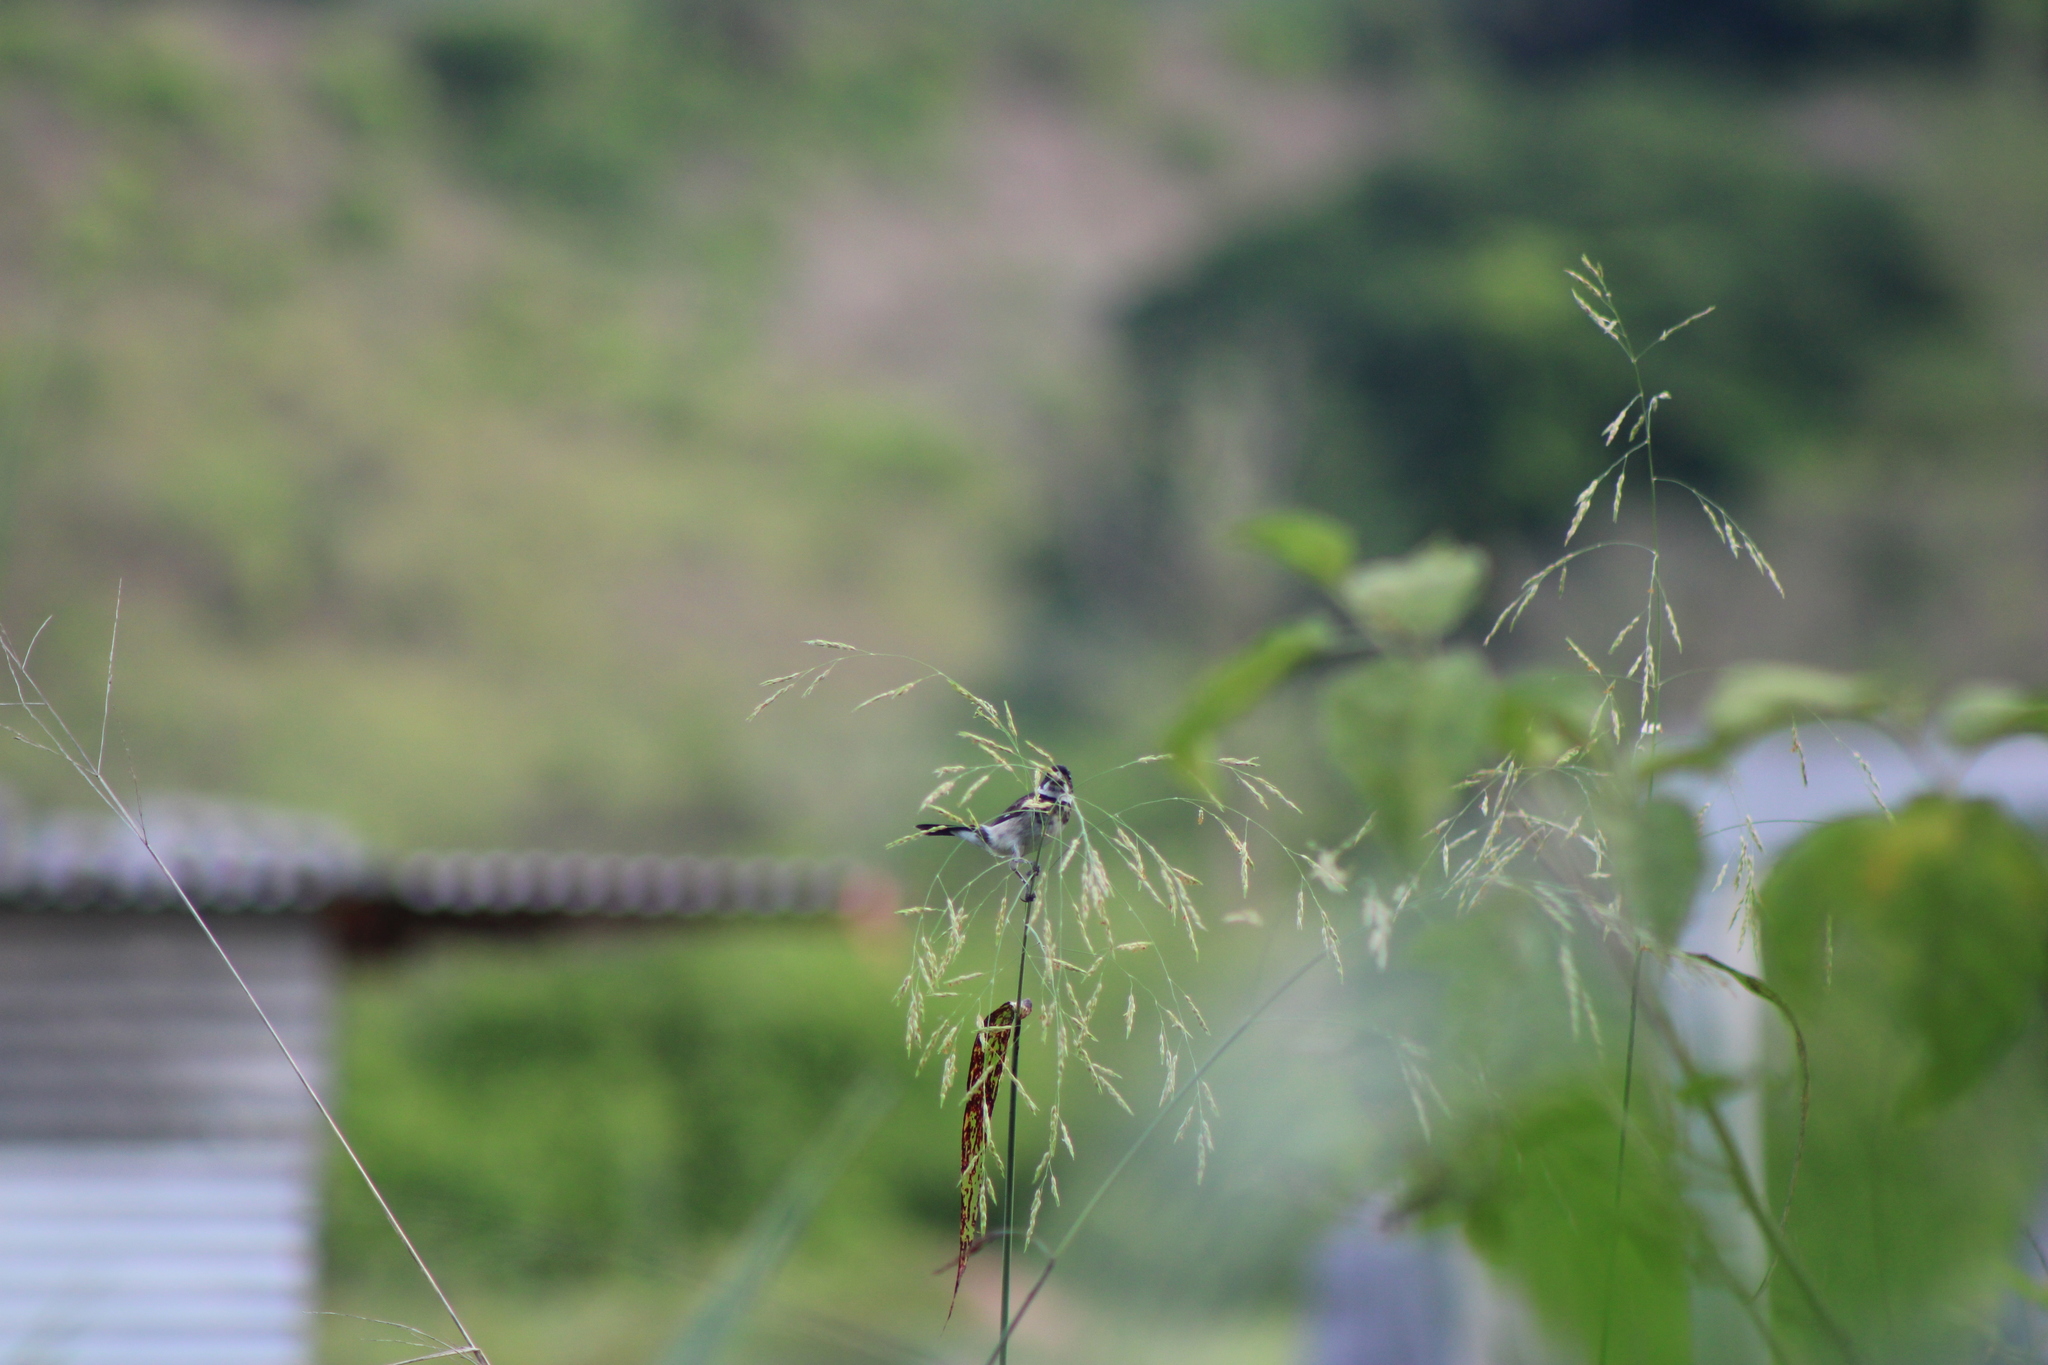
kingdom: Animalia
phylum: Chordata
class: Aves
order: Passeriformes
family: Thraupidae
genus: Sporophila
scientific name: Sporophila corvina
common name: Variable seedeater
